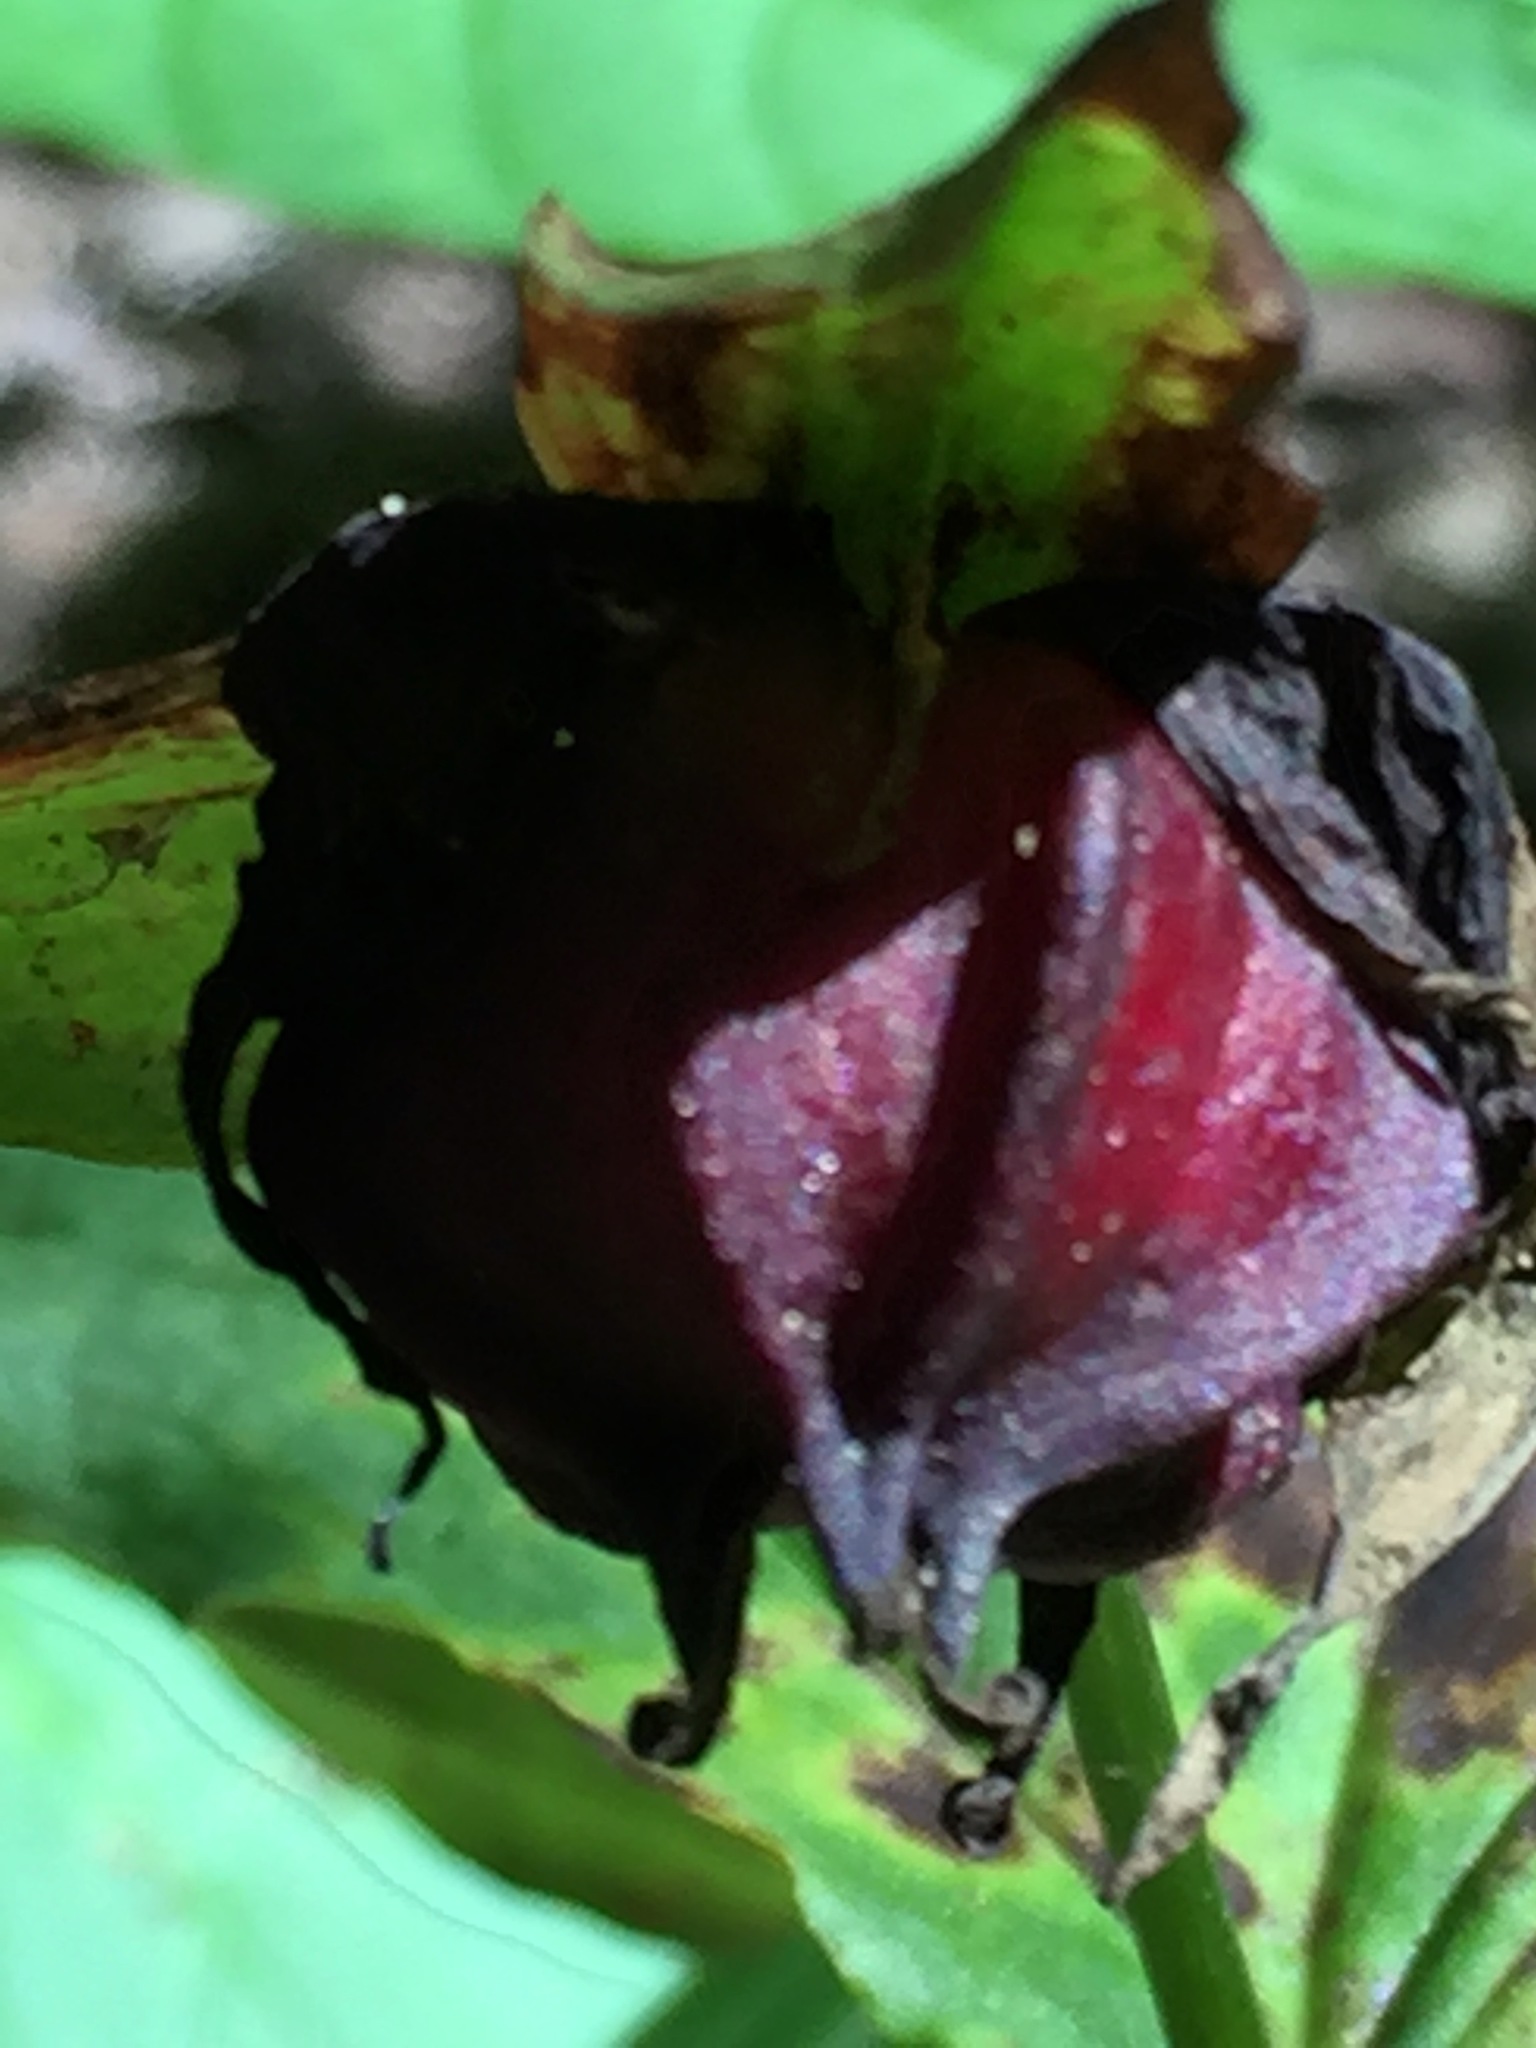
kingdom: Plantae
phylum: Tracheophyta
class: Liliopsida
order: Liliales
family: Melanthiaceae
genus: Trillium
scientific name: Trillium erectum
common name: Purple trillium
